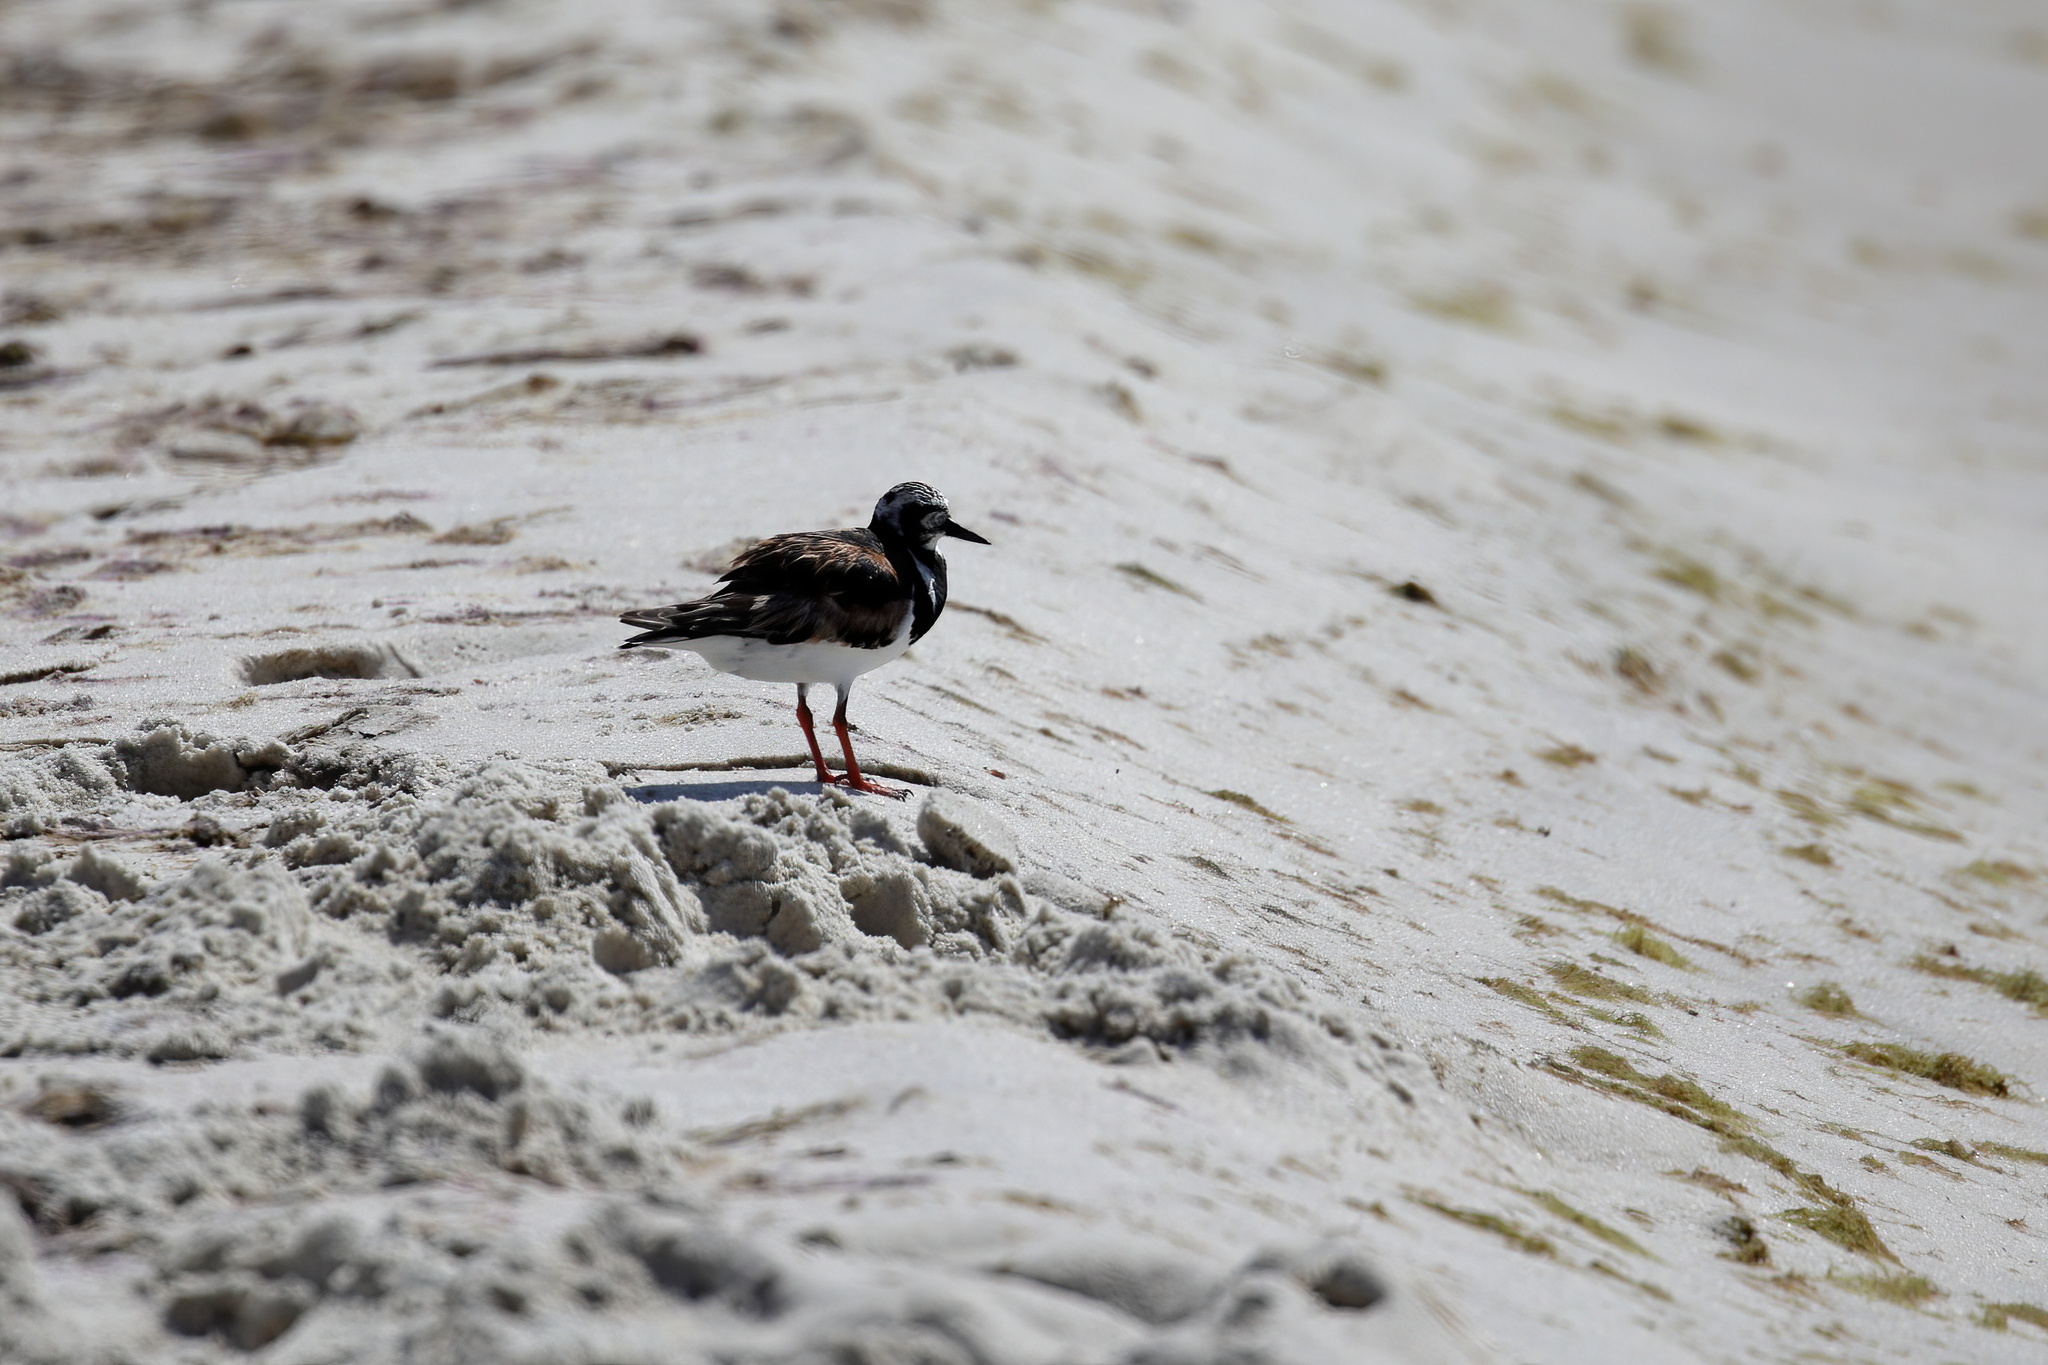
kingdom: Animalia
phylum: Chordata
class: Aves
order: Charadriiformes
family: Scolopacidae
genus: Arenaria
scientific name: Arenaria interpres
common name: Ruddy turnstone
